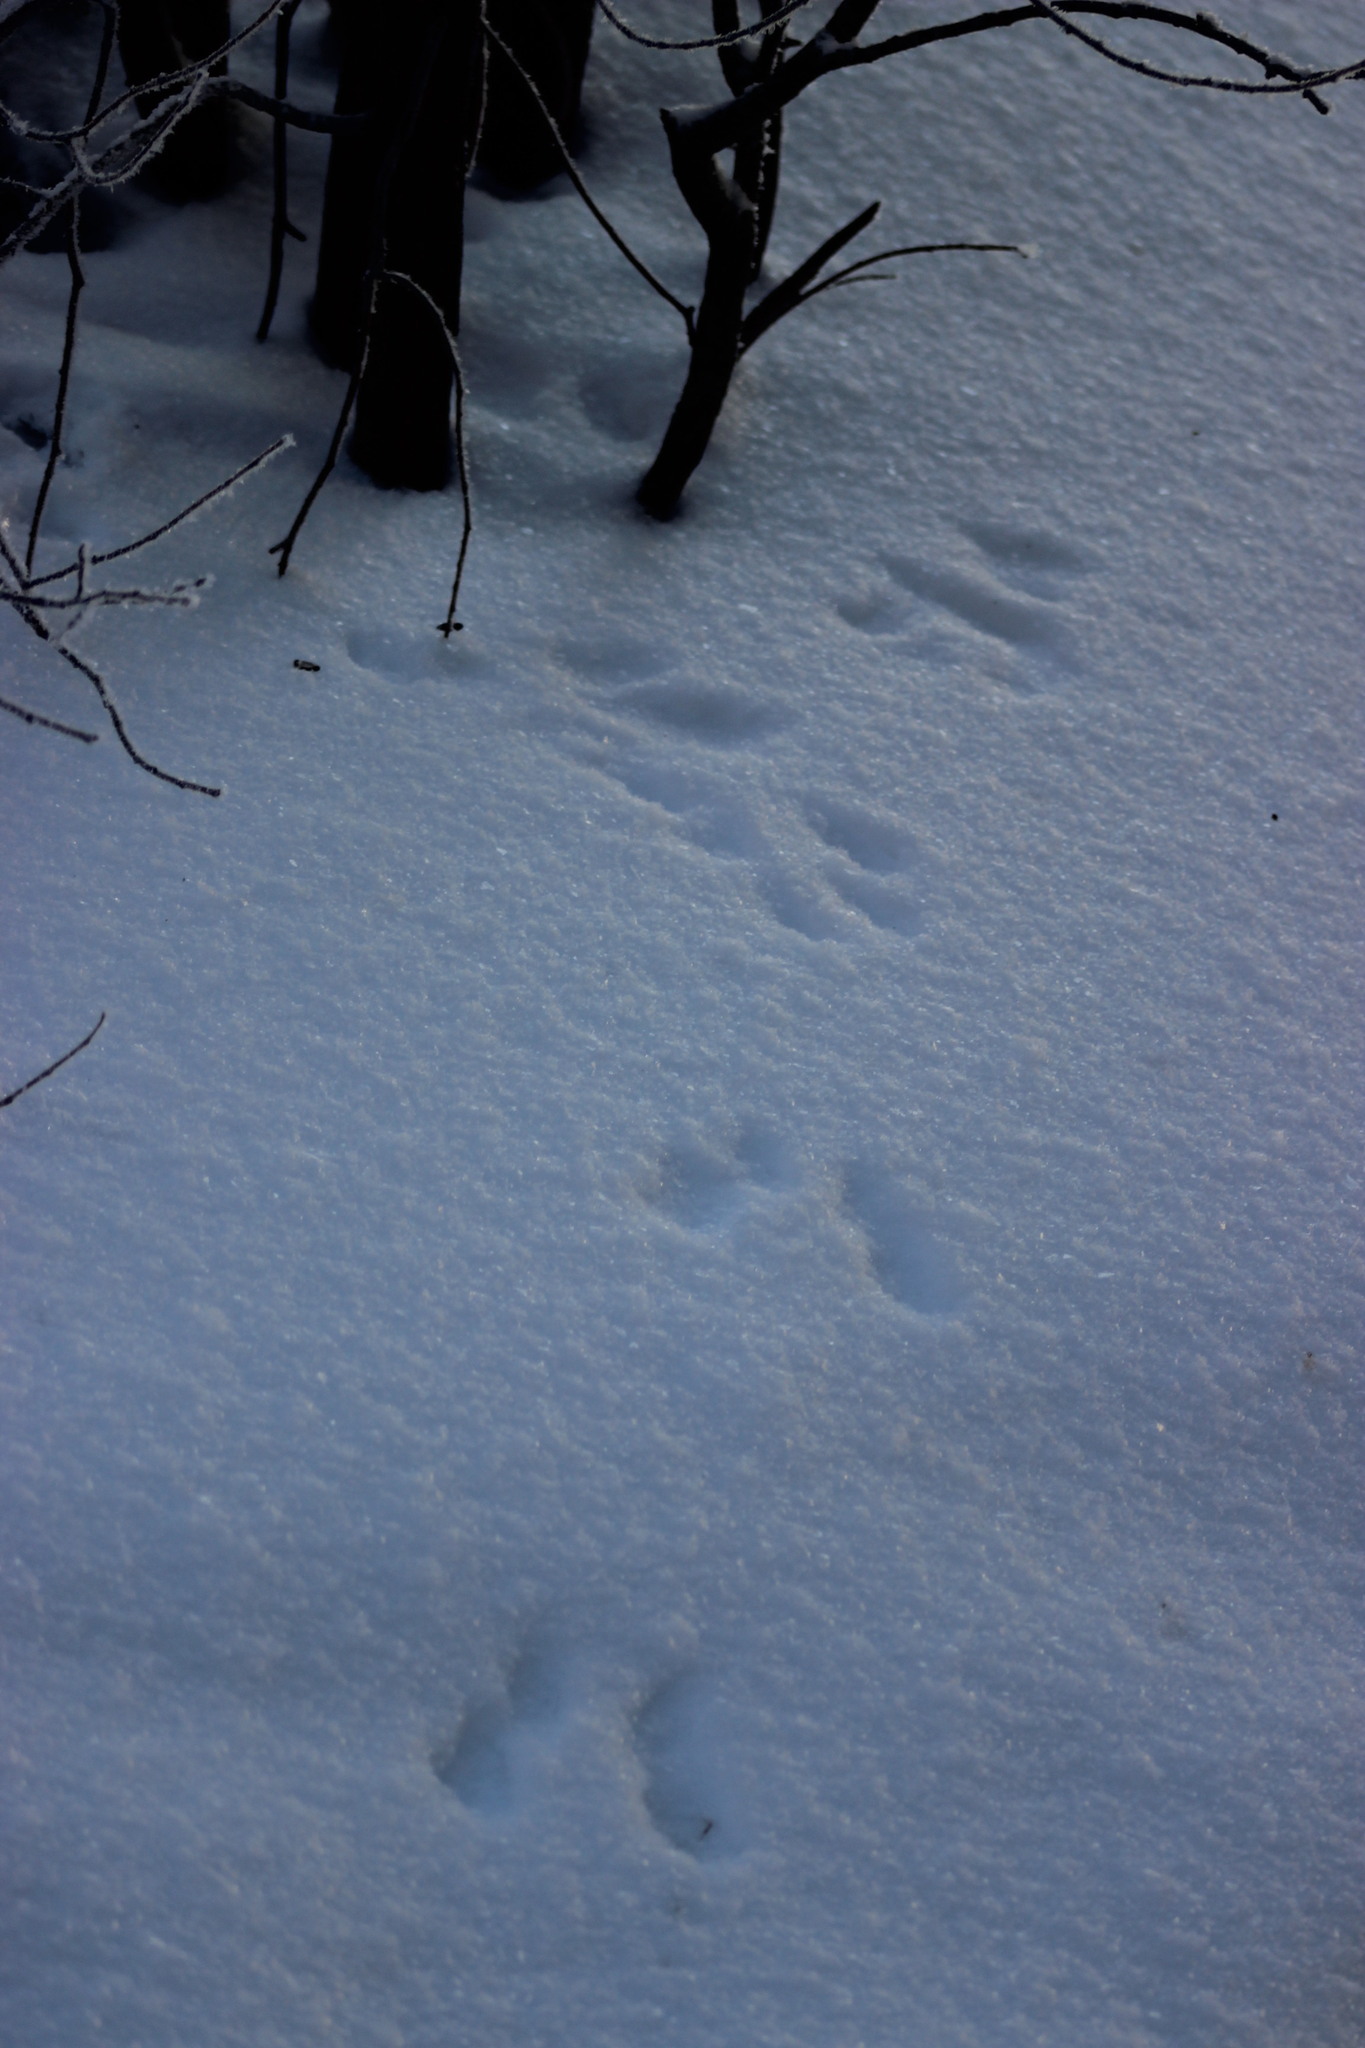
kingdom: Animalia
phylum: Chordata
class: Mammalia
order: Rodentia
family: Sciuridae
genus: Sciurus
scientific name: Sciurus vulgaris
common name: Eurasian red squirrel
